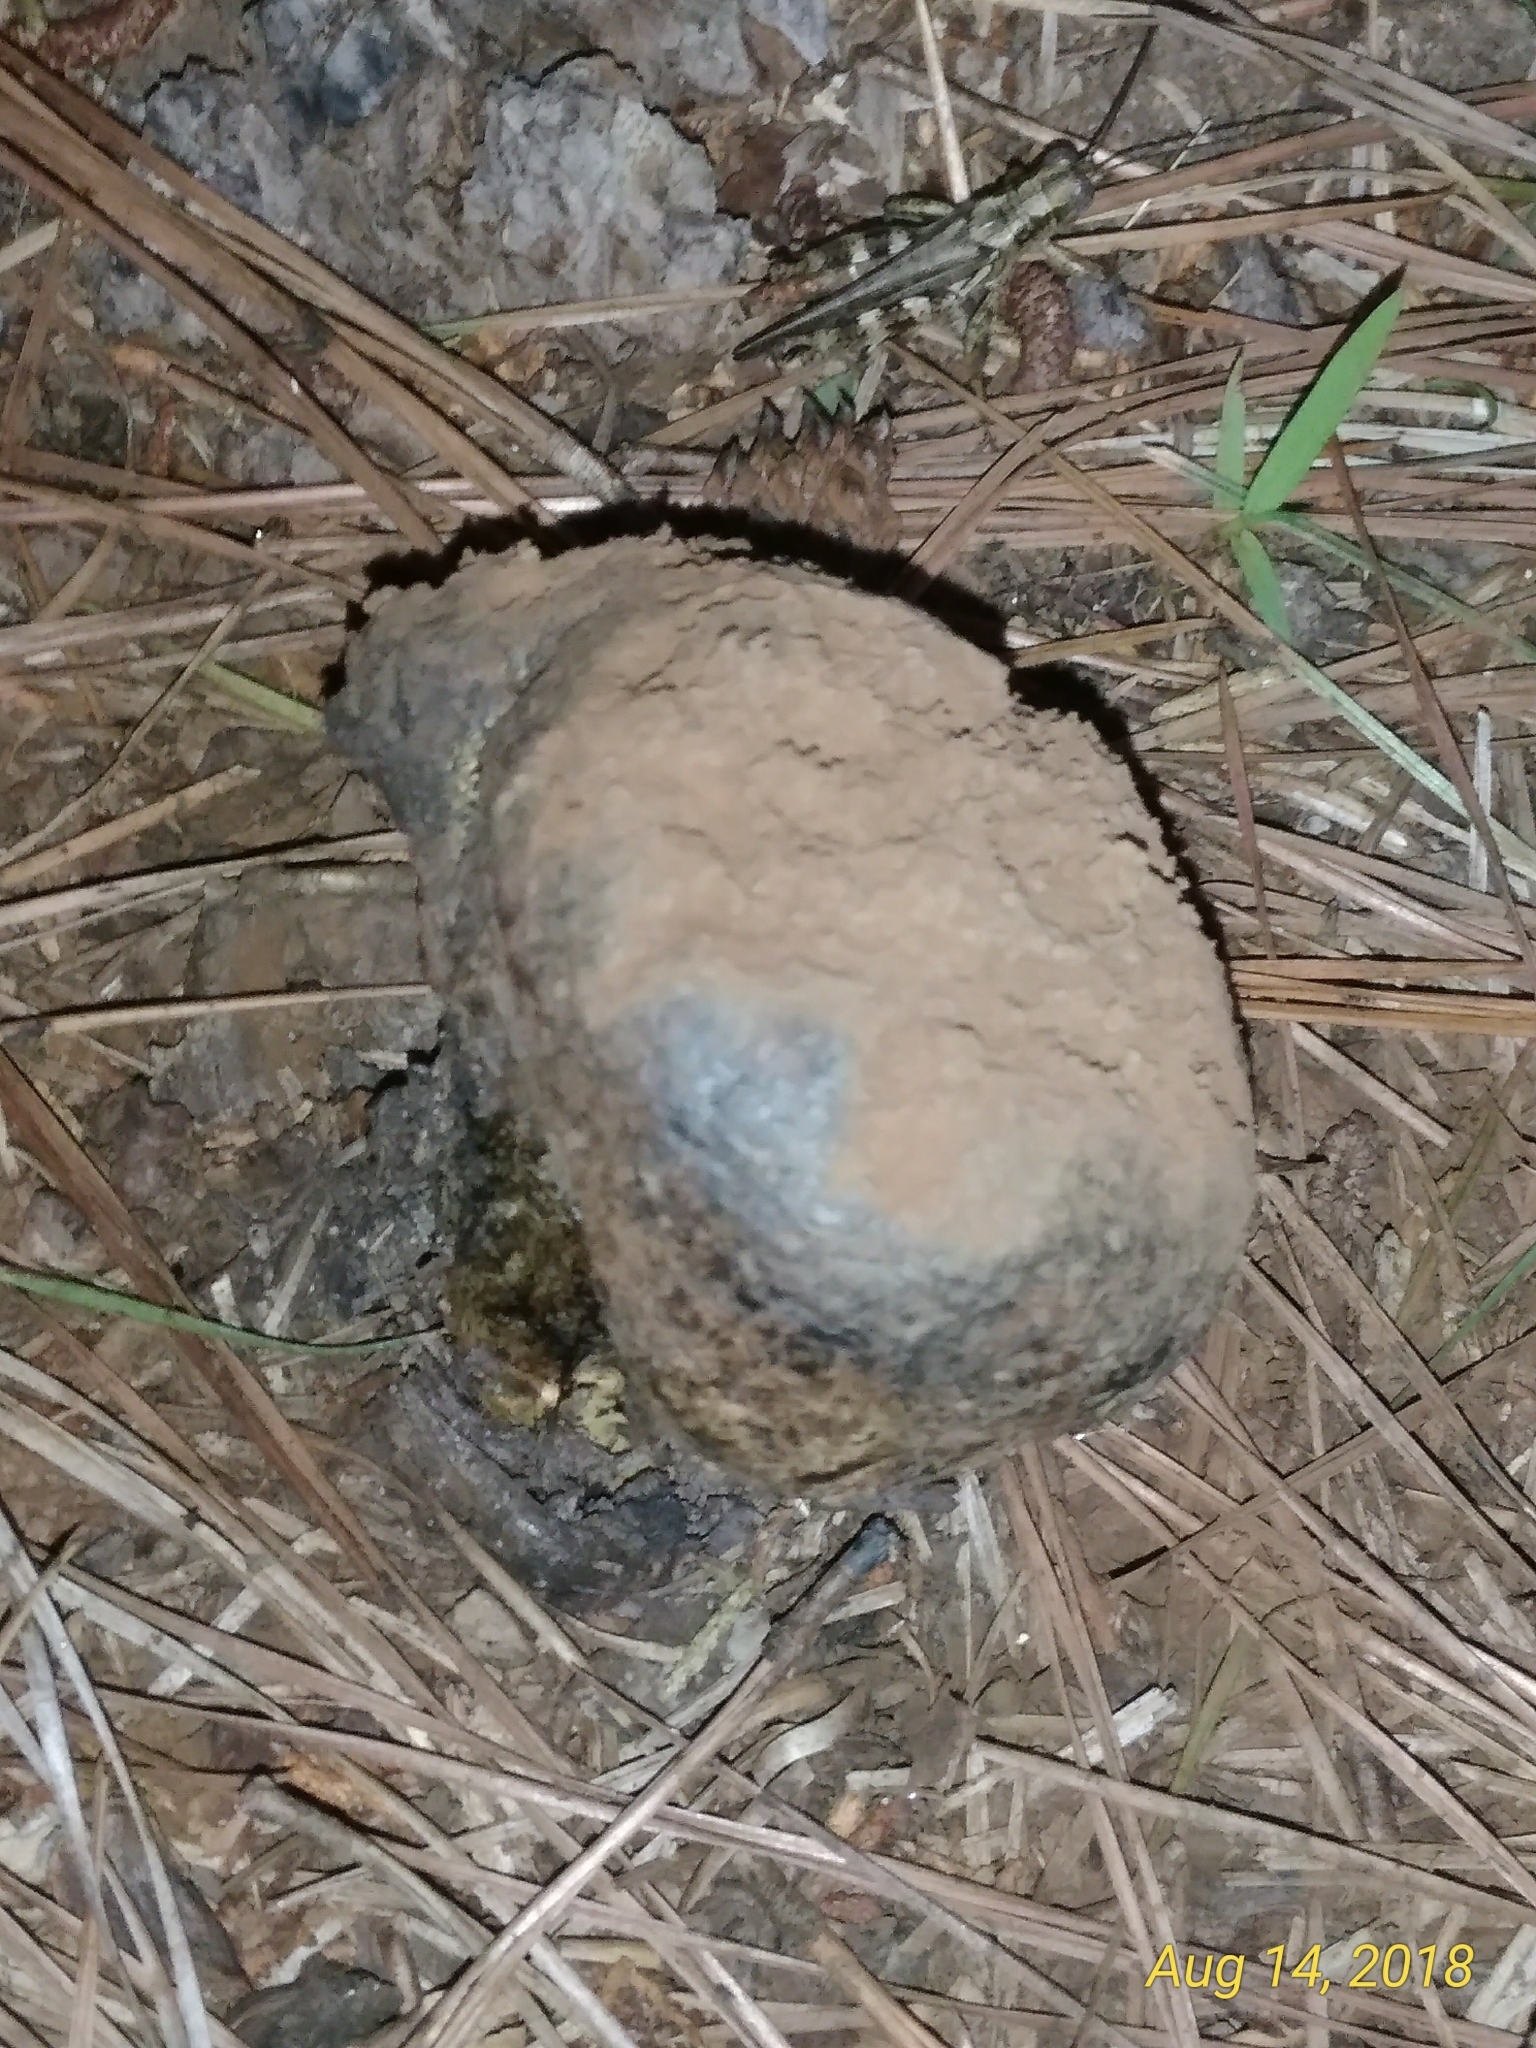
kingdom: Fungi
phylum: Basidiomycota
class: Agaricomycetes
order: Boletales
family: Sclerodermataceae
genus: Pisolithus
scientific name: Pisolithus arhizus
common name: Dyeball
